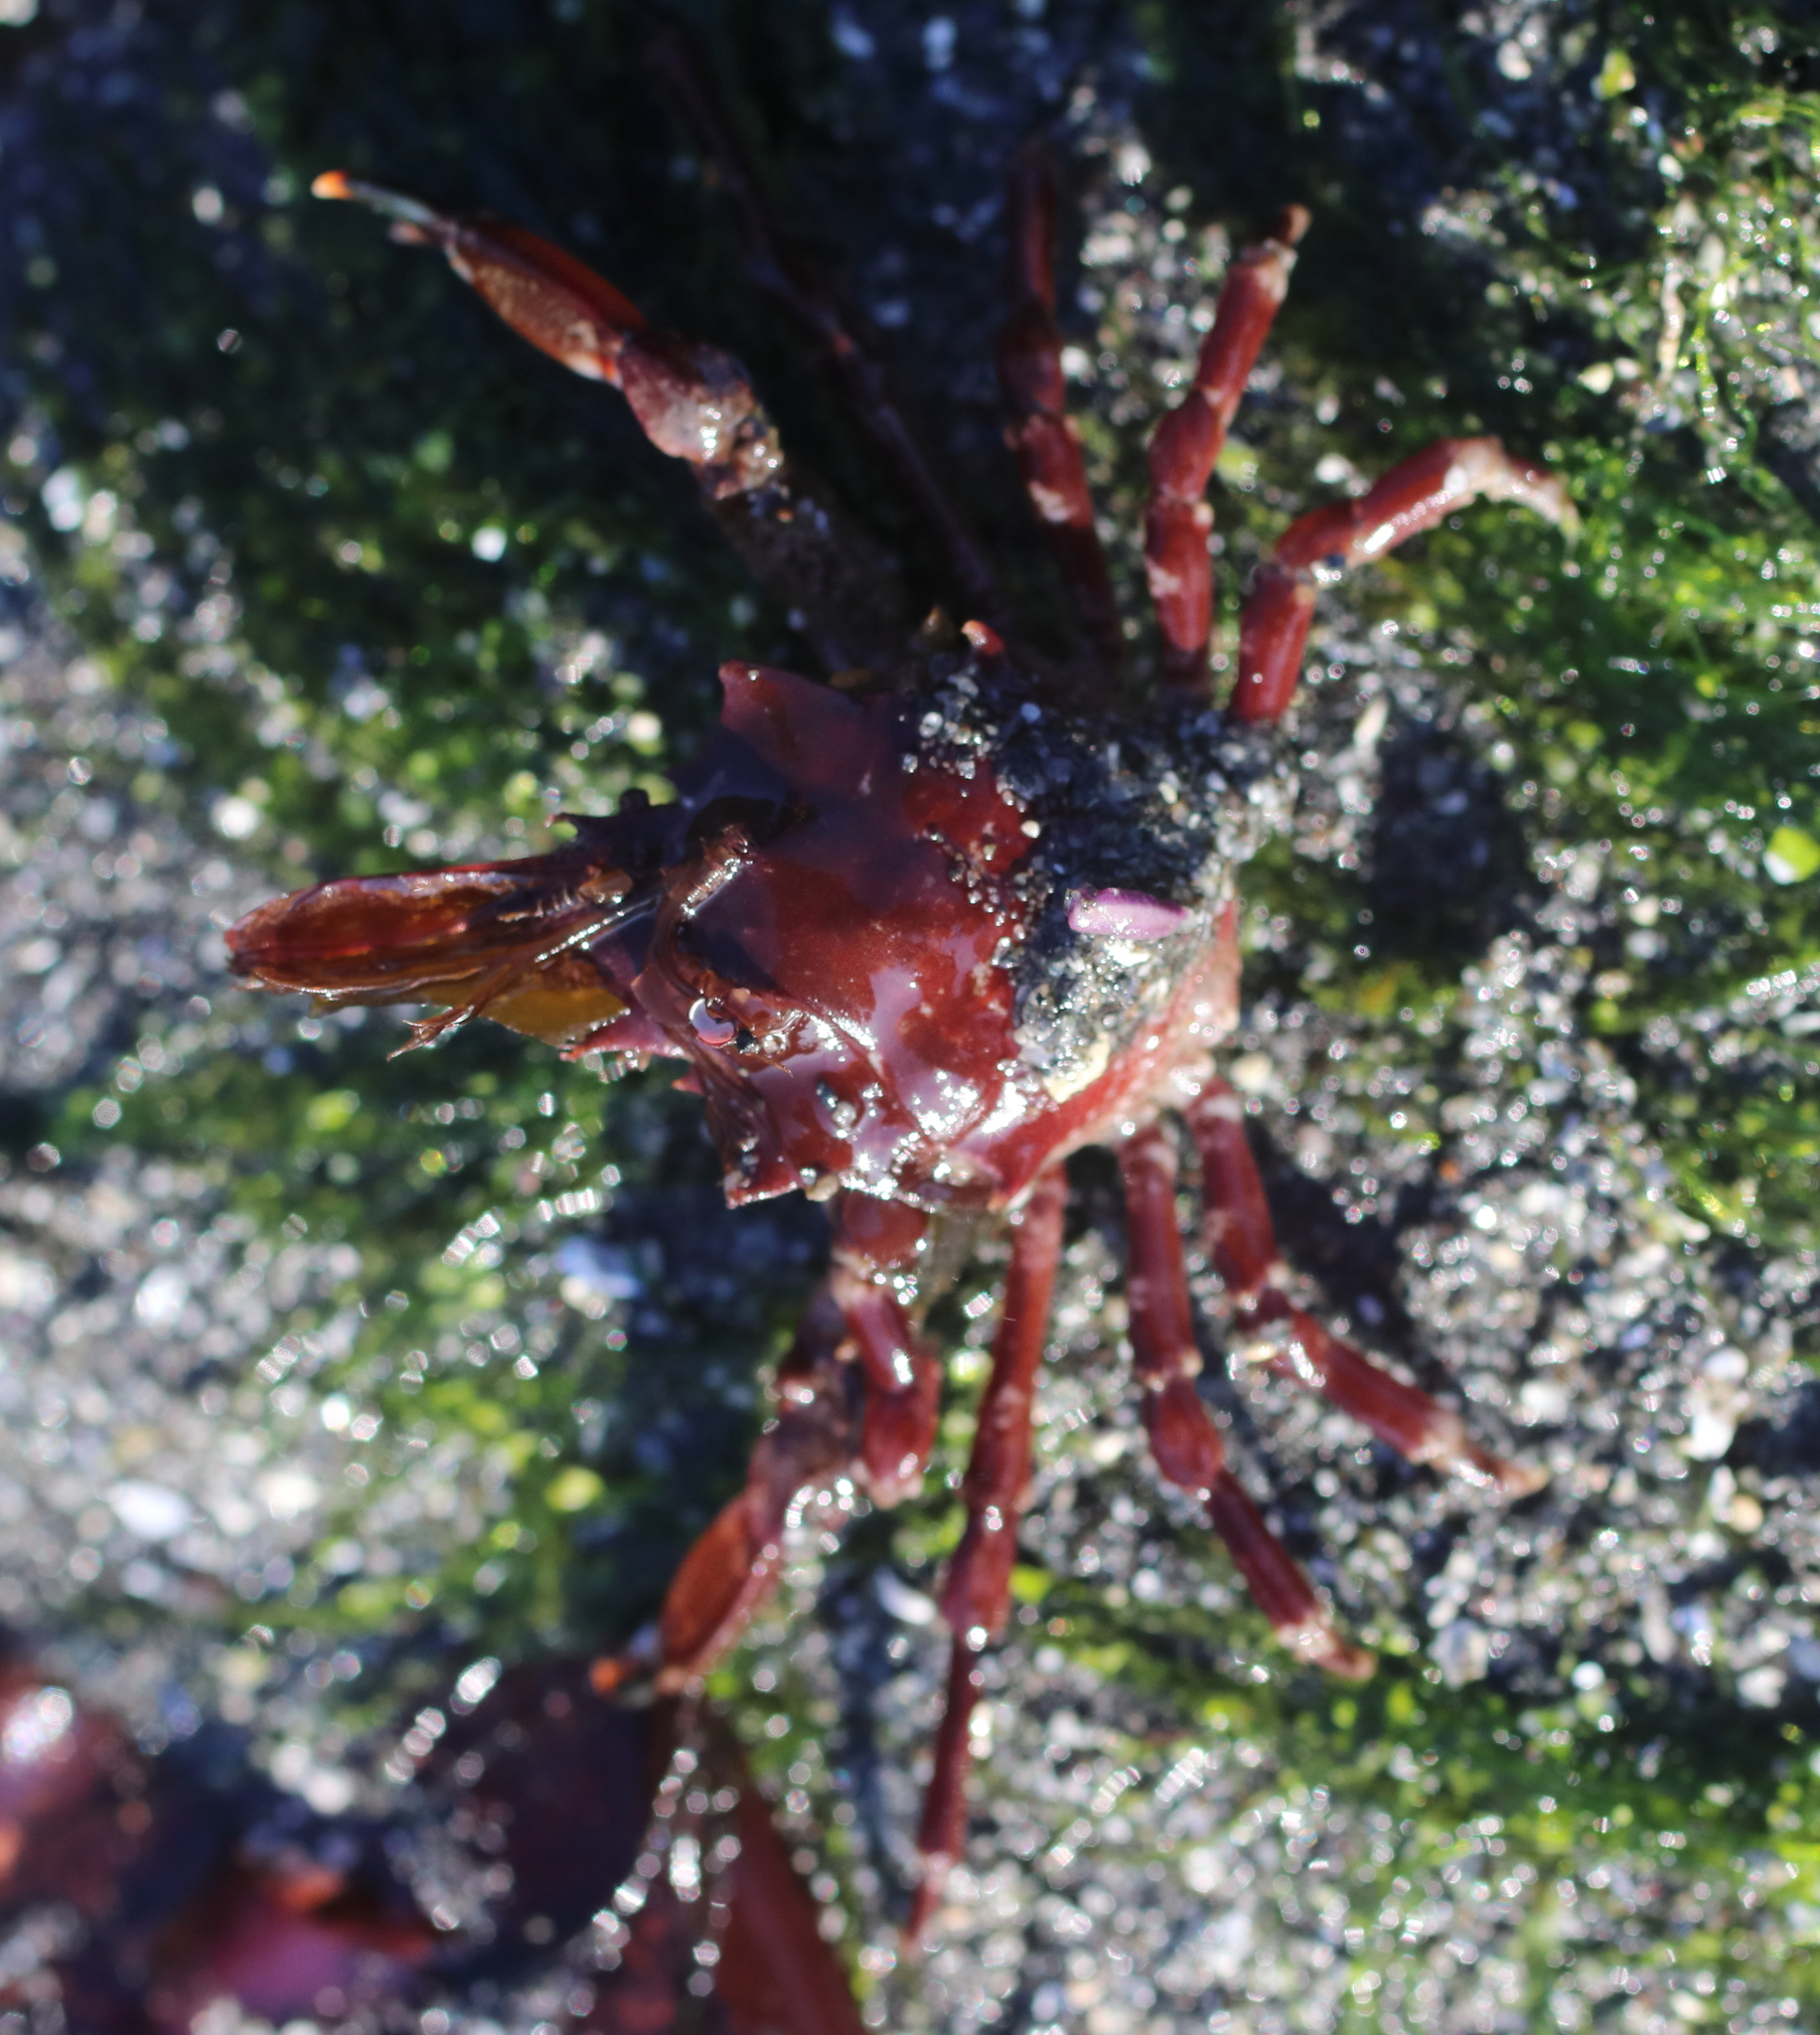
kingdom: Animalia
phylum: Arthropoda
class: Malacostraca
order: Decapoda
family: Epialtidae
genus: Pugettia
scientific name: Pugettia gracilis
